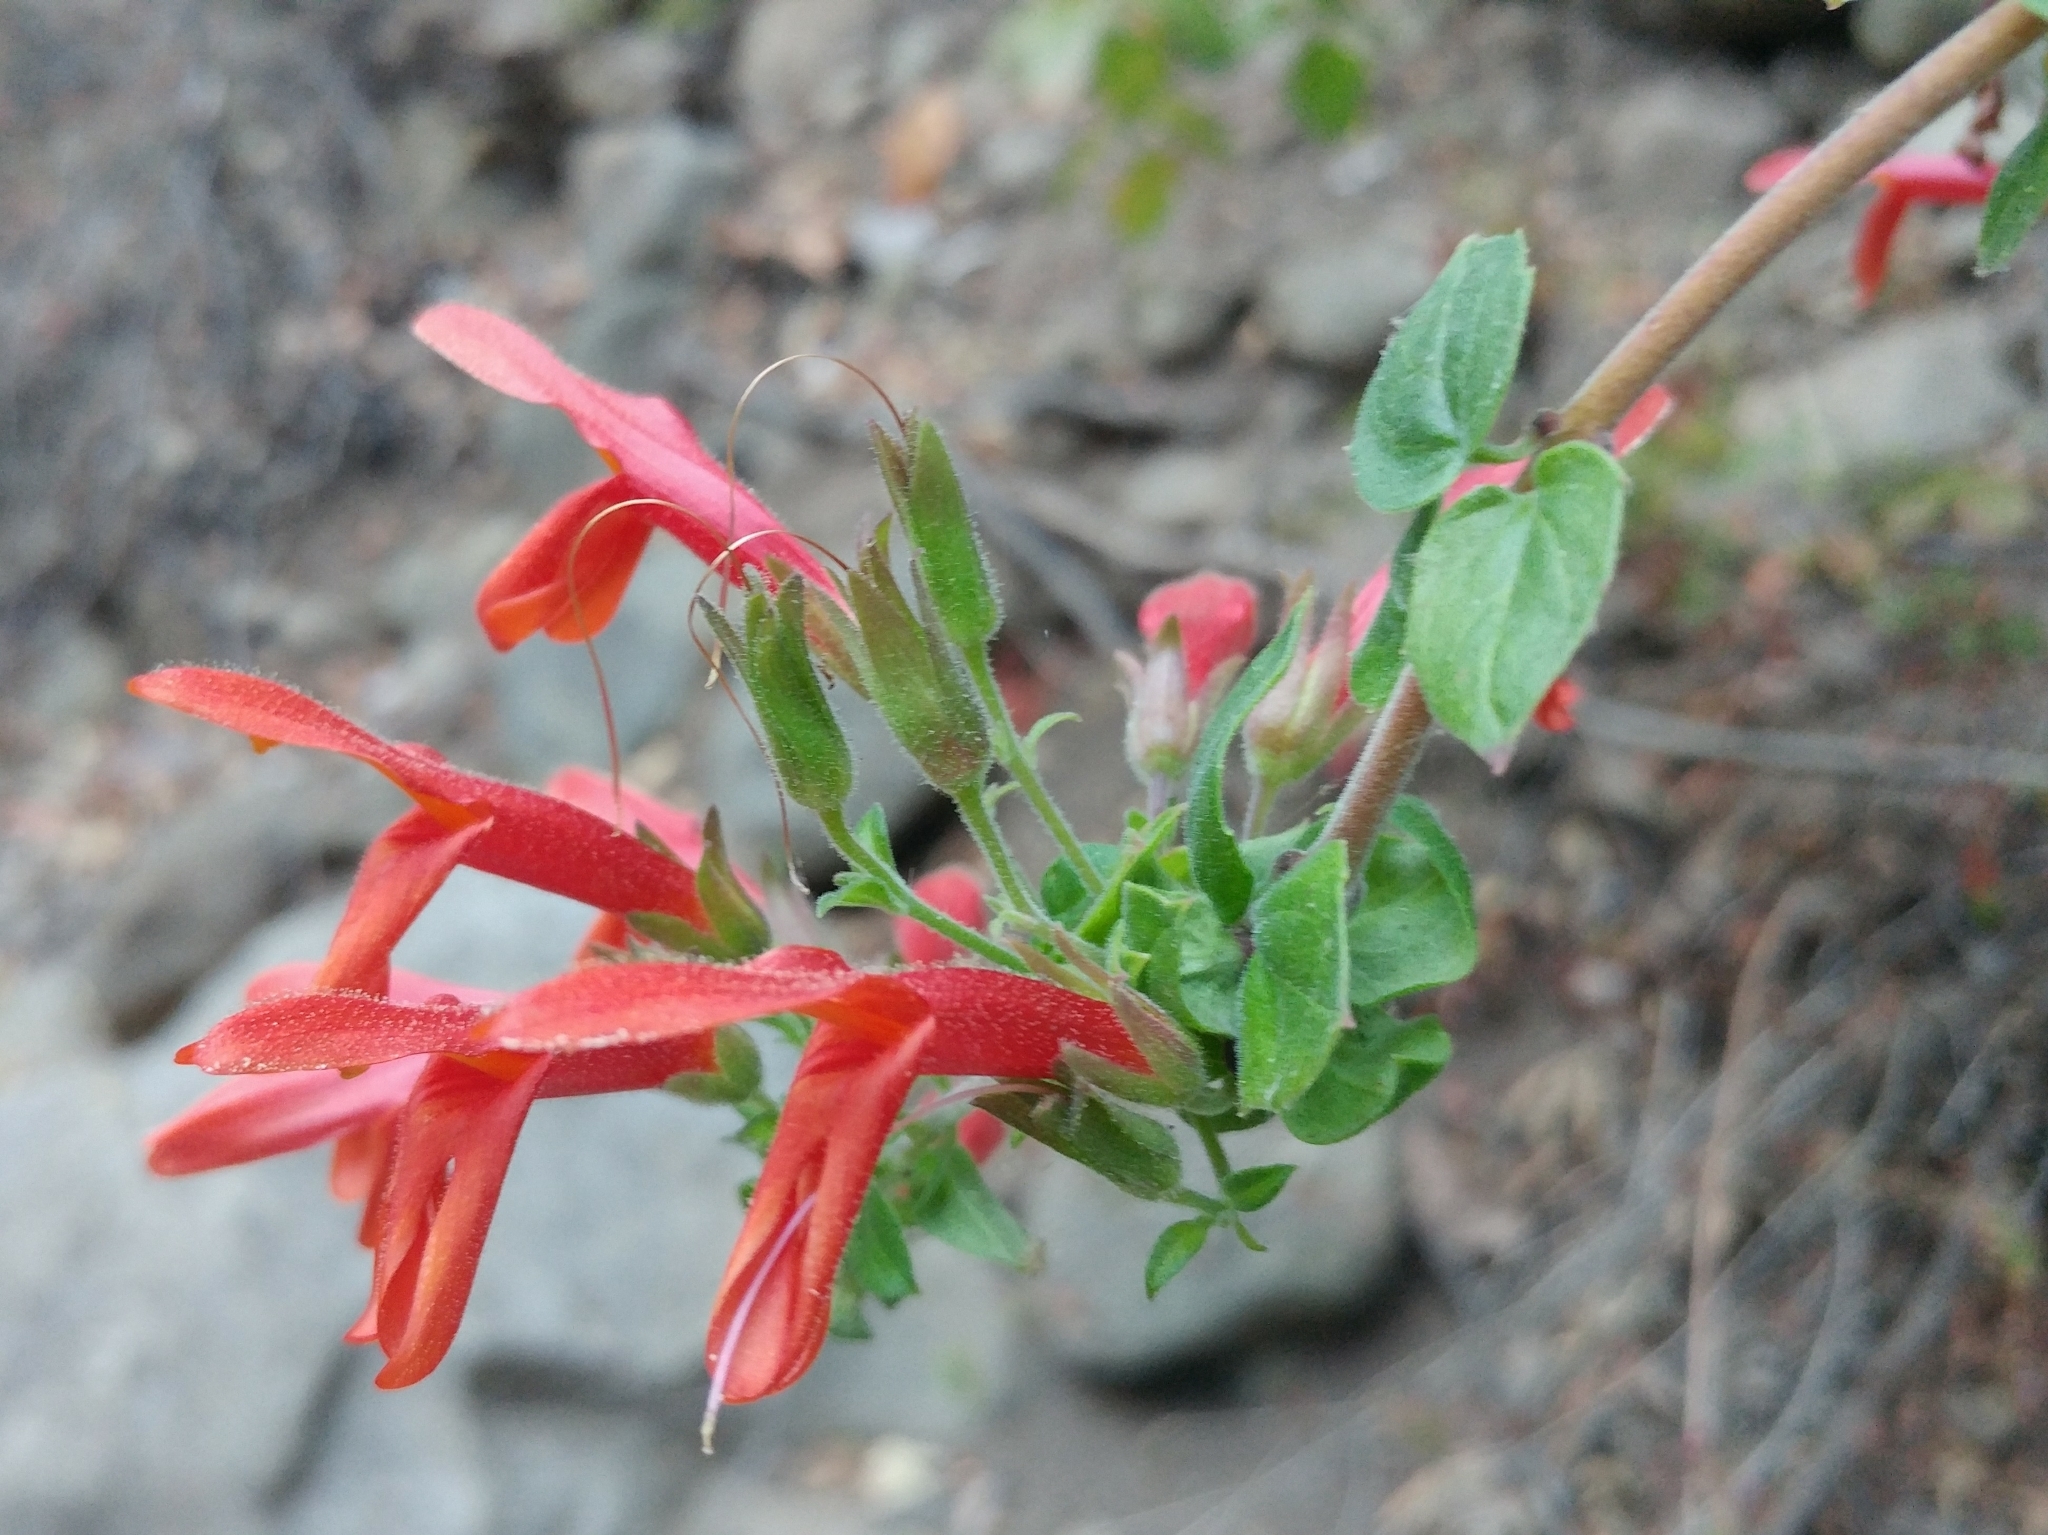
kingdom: Plantae
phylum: Tracheophyta
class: Magnoliopsida
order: Lamiales
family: Plantaginaceae
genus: Keckiella
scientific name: Keckiella cordifolia
